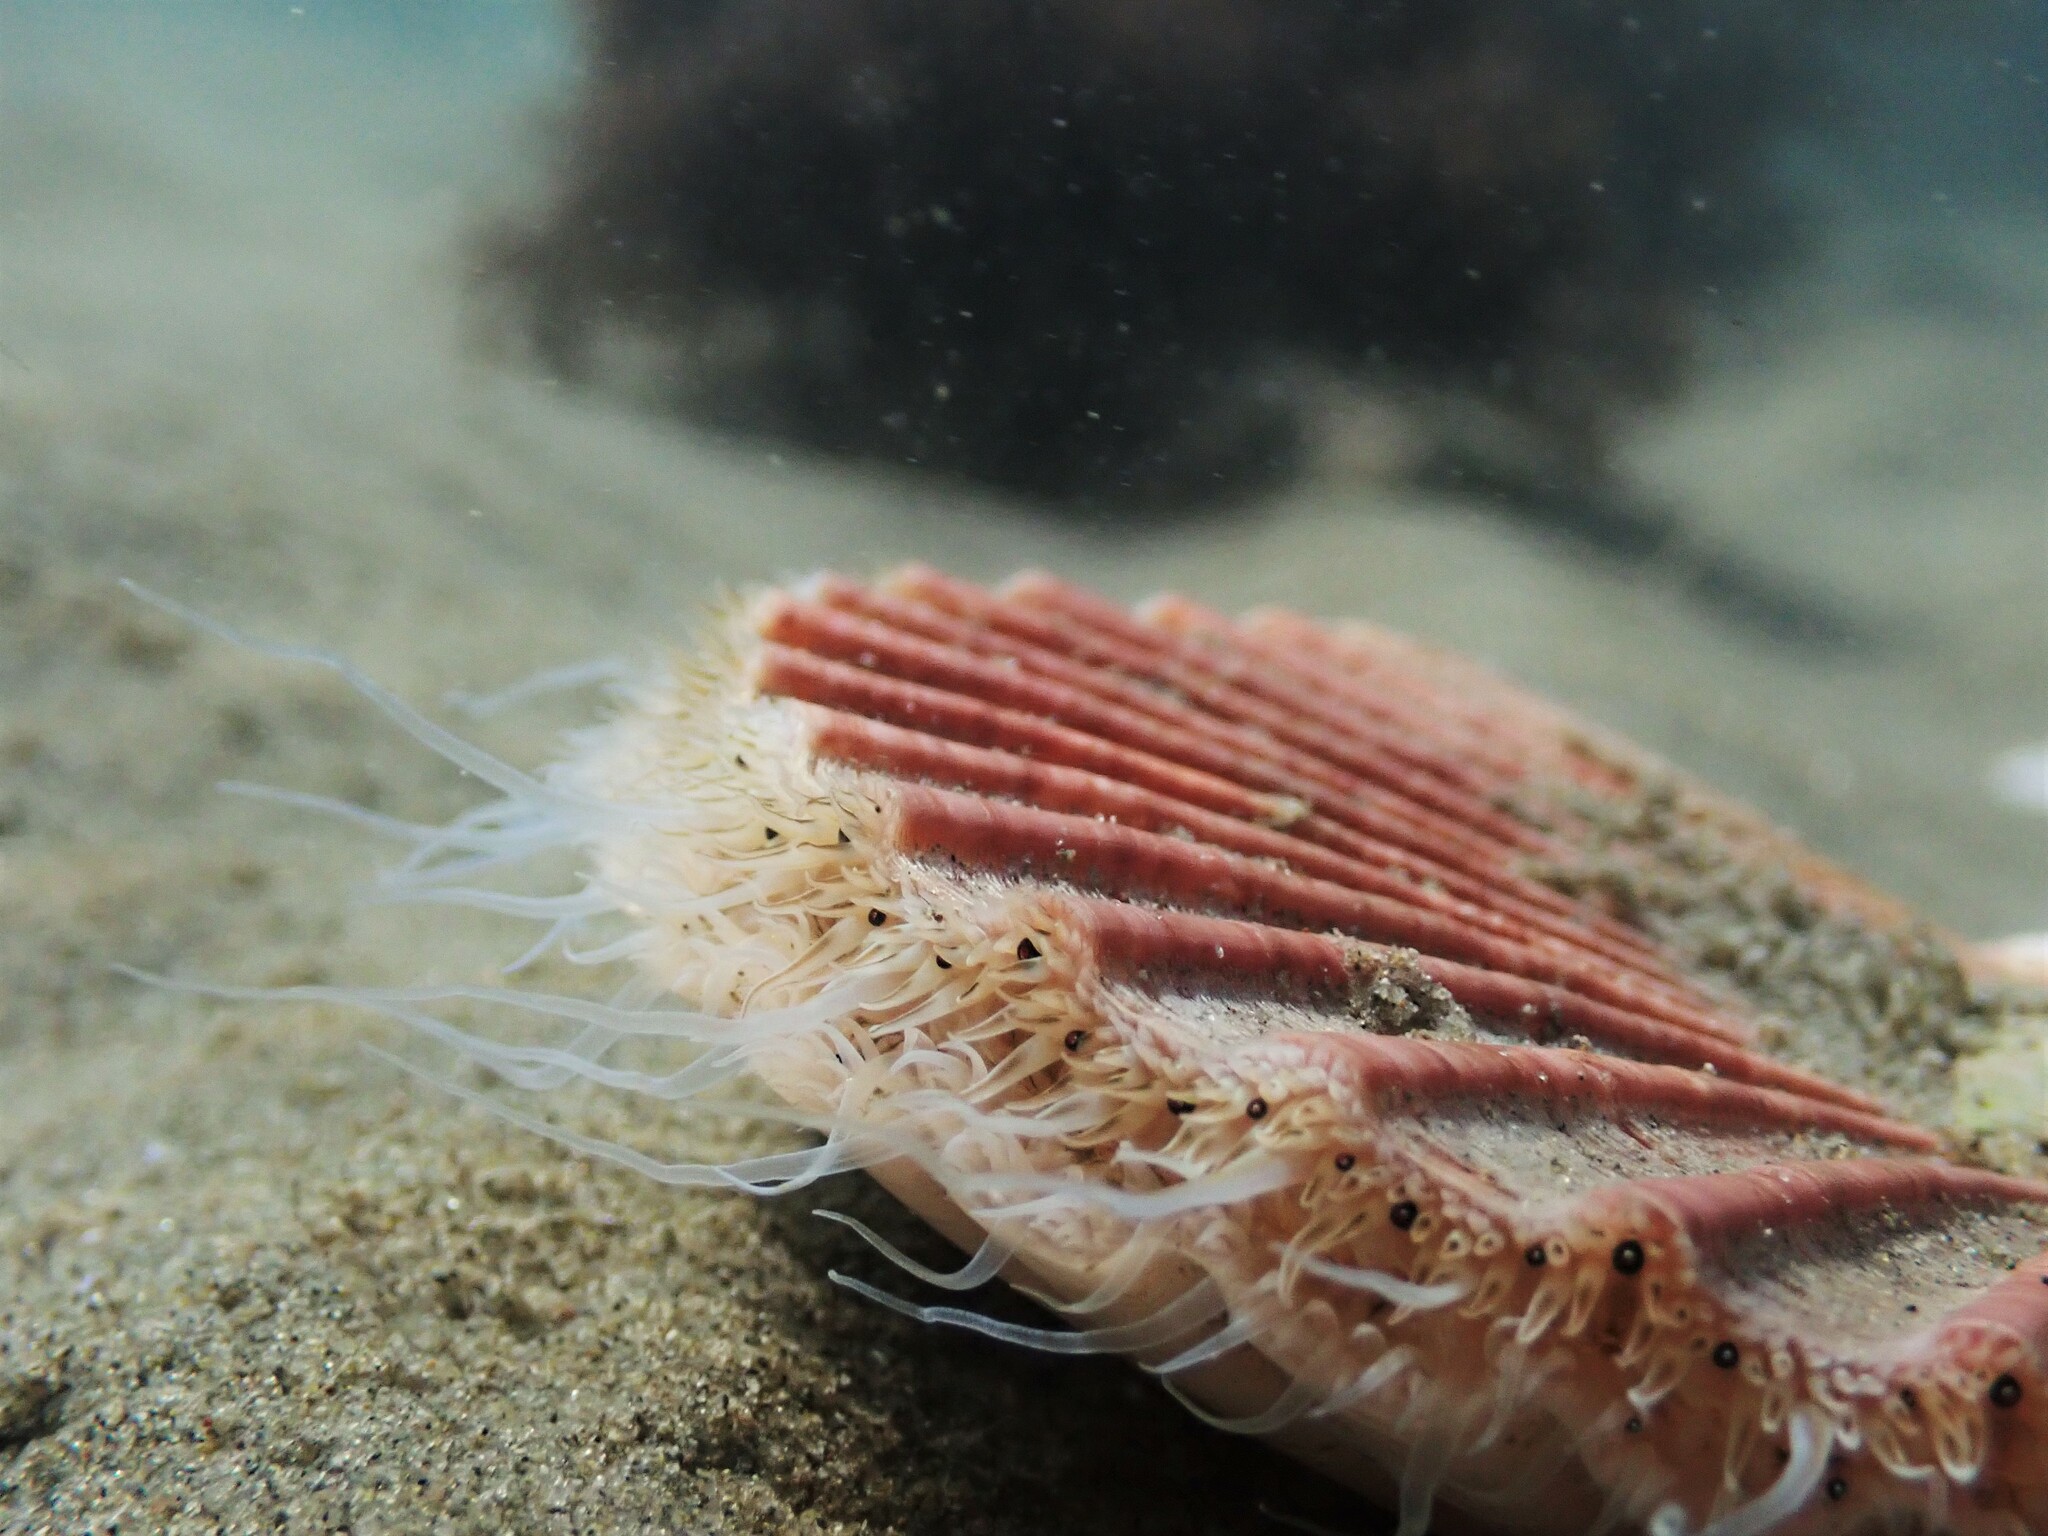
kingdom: Animalia
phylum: Mollusca
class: Bivalvia
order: Pectinida
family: Pectinidae
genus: Pecten
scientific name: Pecten novaezelandiae
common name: New zealand scallop
